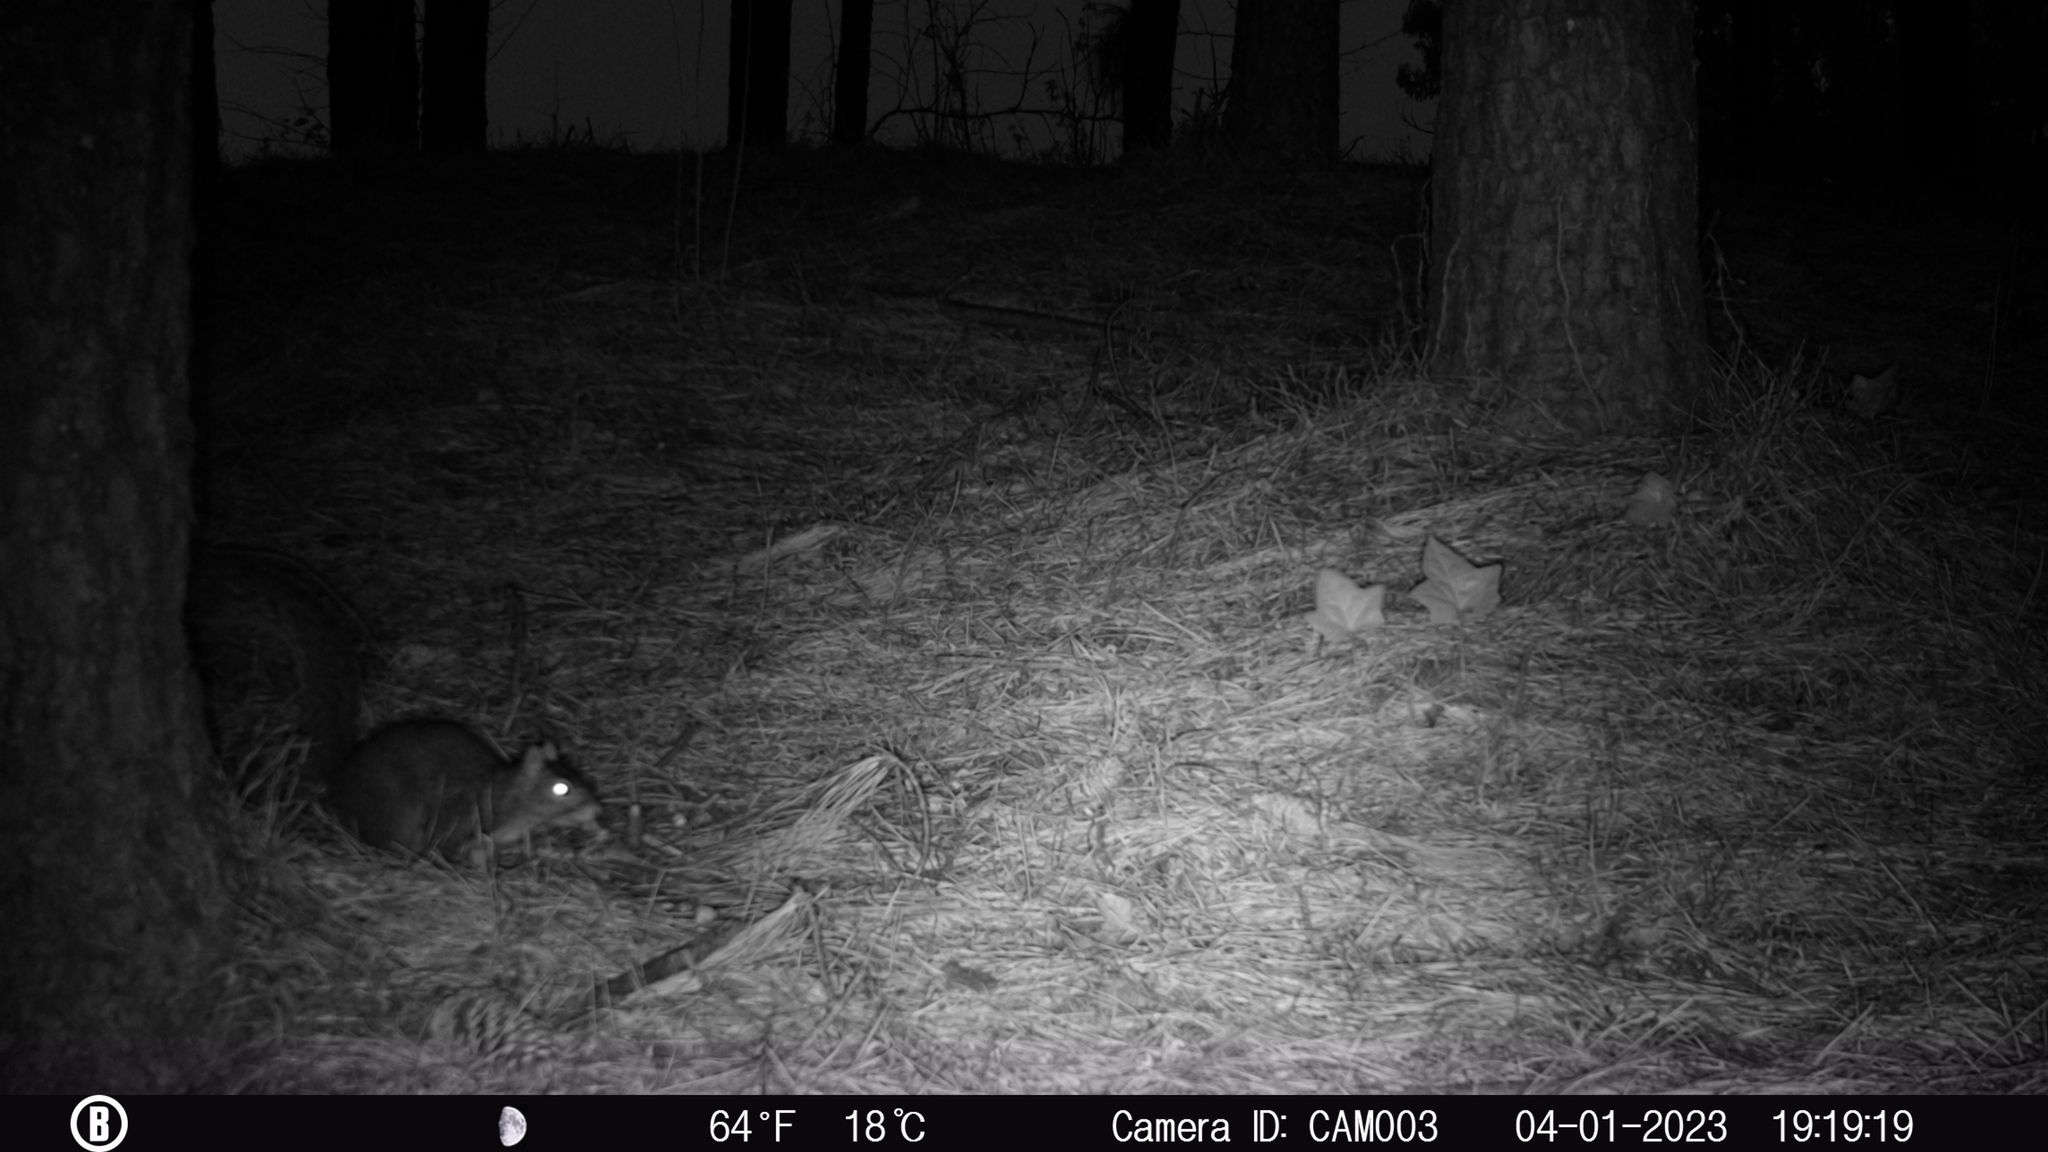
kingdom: Animalia
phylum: Chordata
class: Mammalia
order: Rodentia
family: Sciuridae
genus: Sciurus
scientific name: Sciurus carolinensis
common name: Eastern gray squirrel
